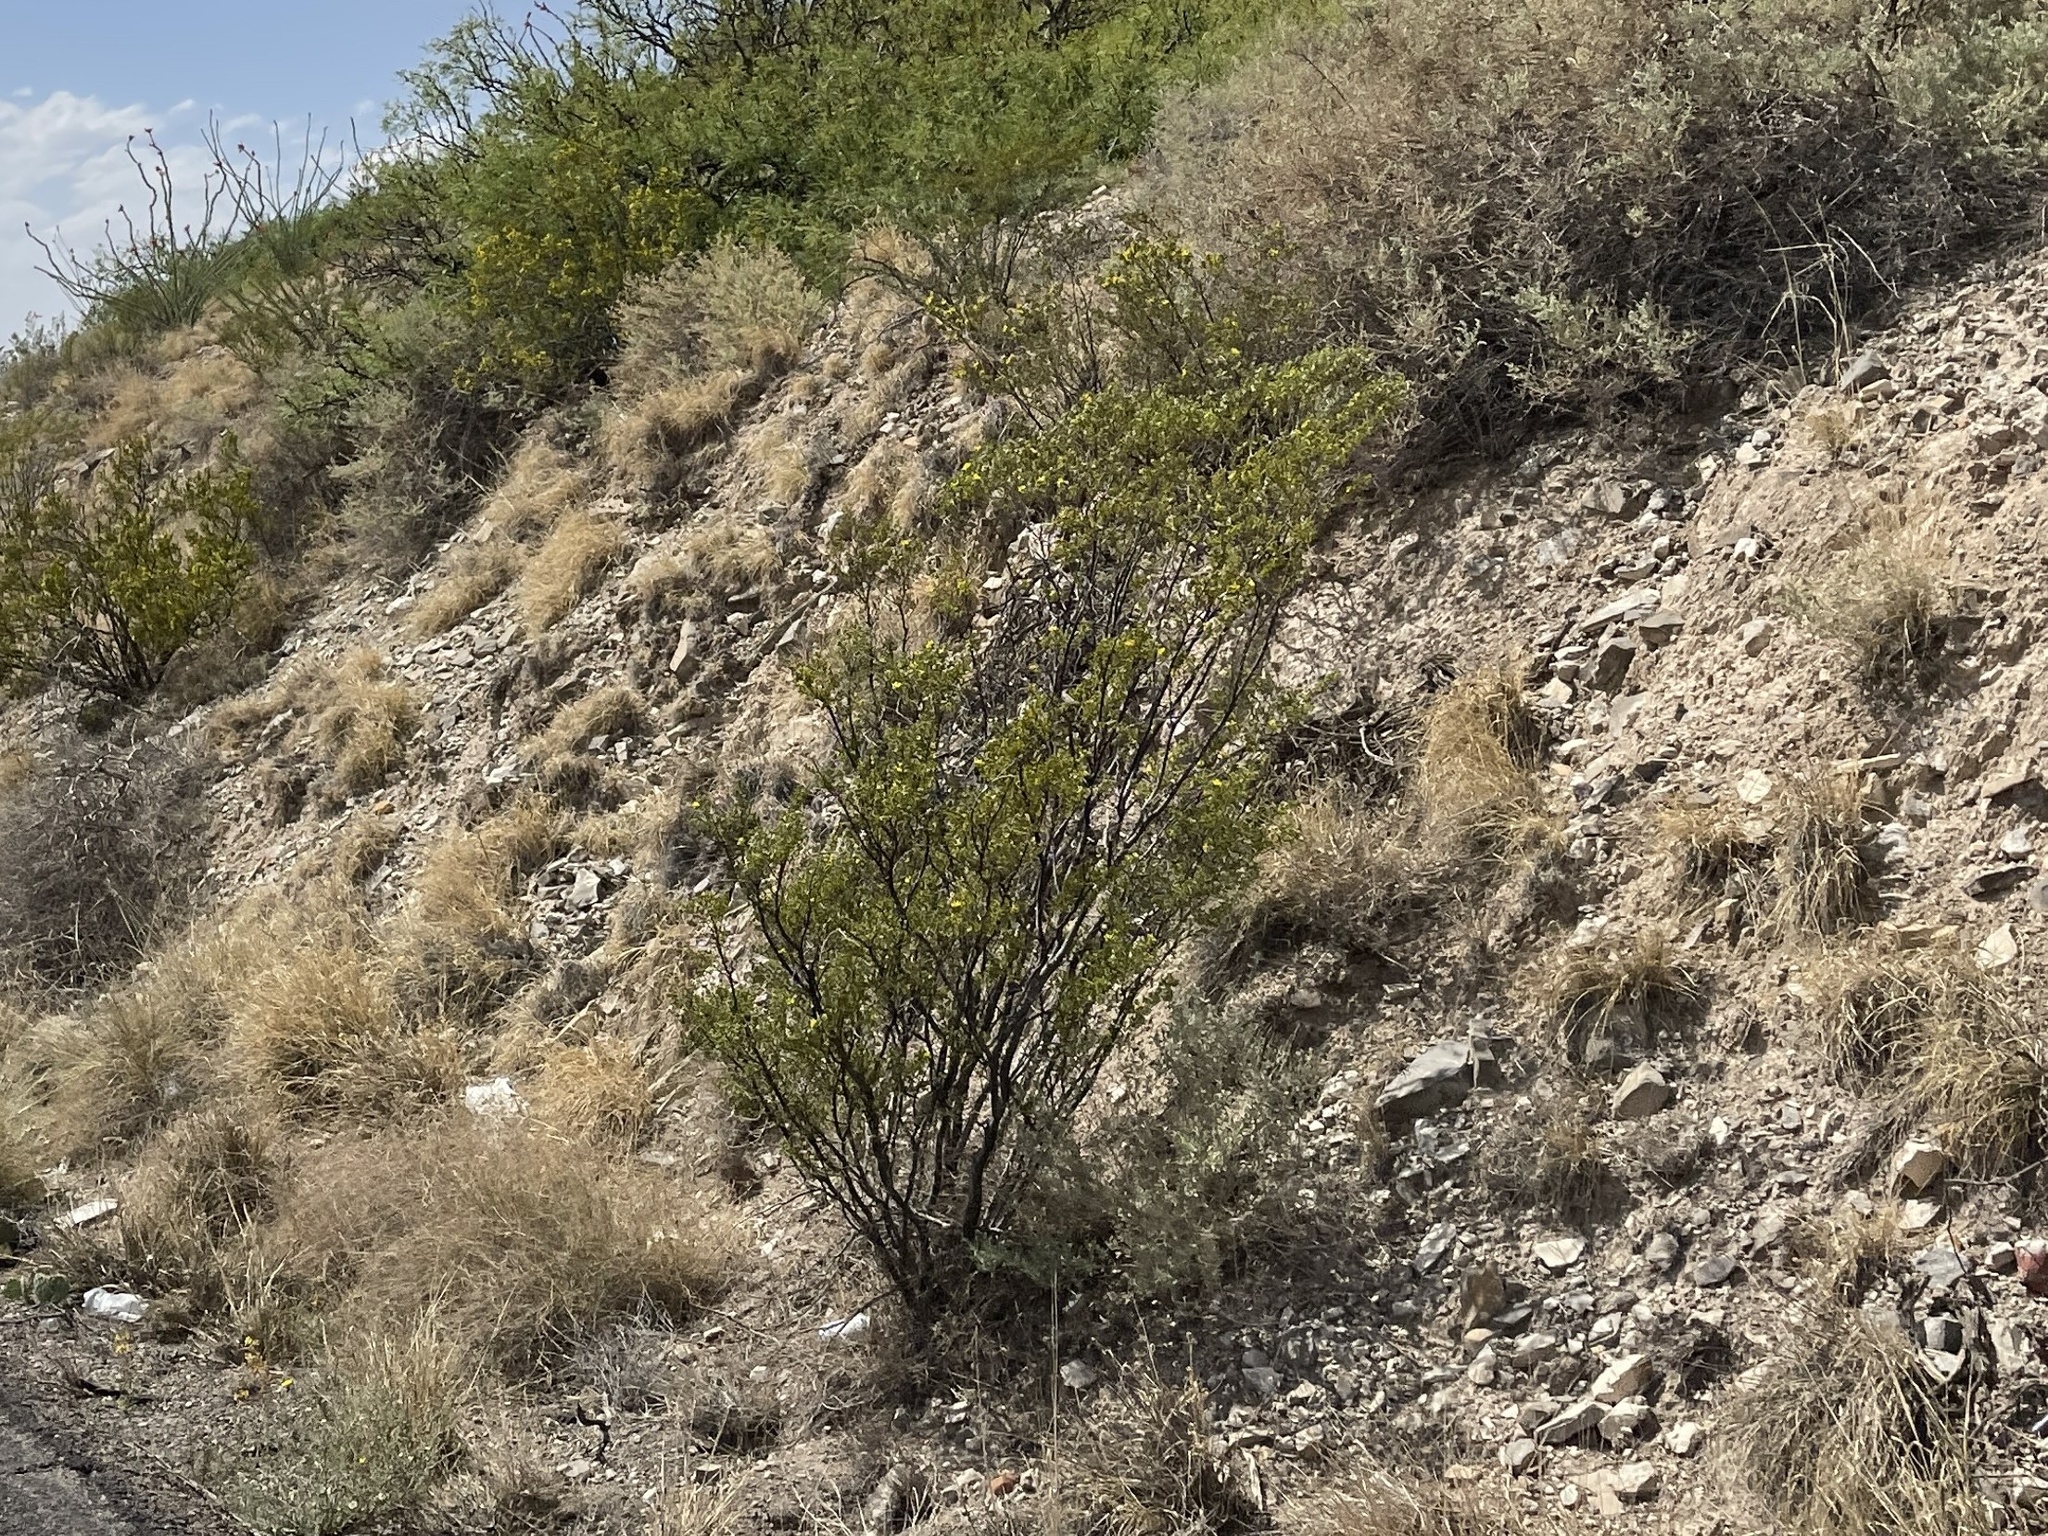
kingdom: Plantae
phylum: Tracheophyta
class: Magnoliopsida
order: Zygophyllales
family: Zygophyllaceae
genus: Larrea
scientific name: Larrea tridentata
